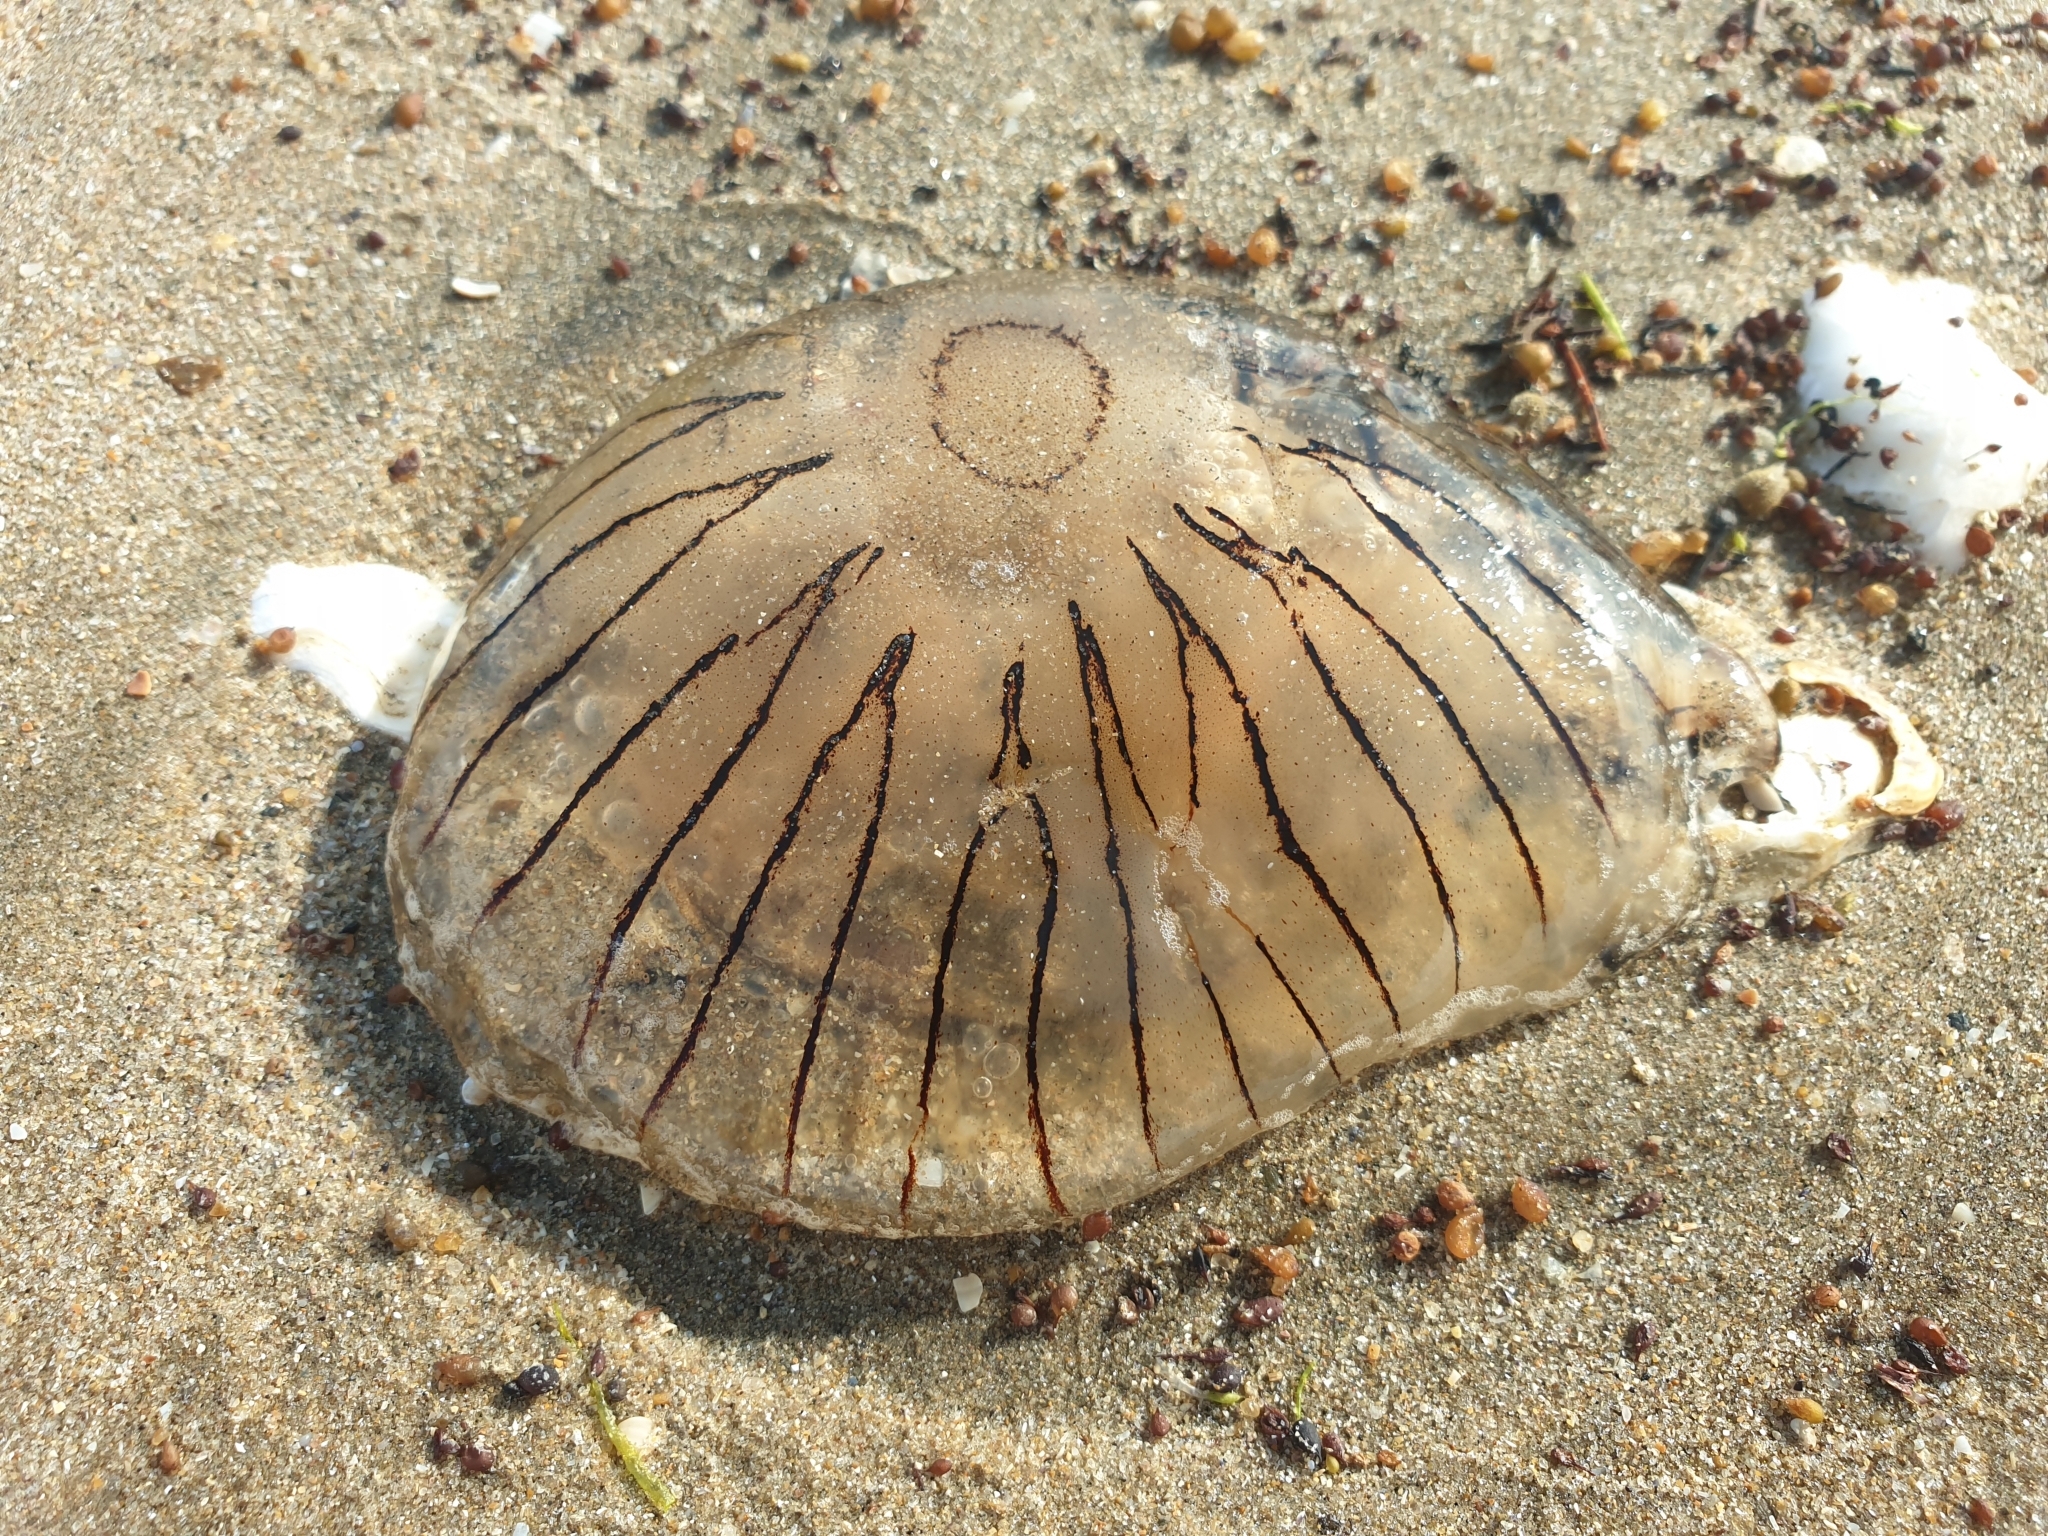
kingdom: Animalia
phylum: Cnidaria
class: Scyphozoa
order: Semaeostomeae
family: Pelagiidae
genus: Chrysaora
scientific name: Chrysaora hysoscella
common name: Compass jellyfish
